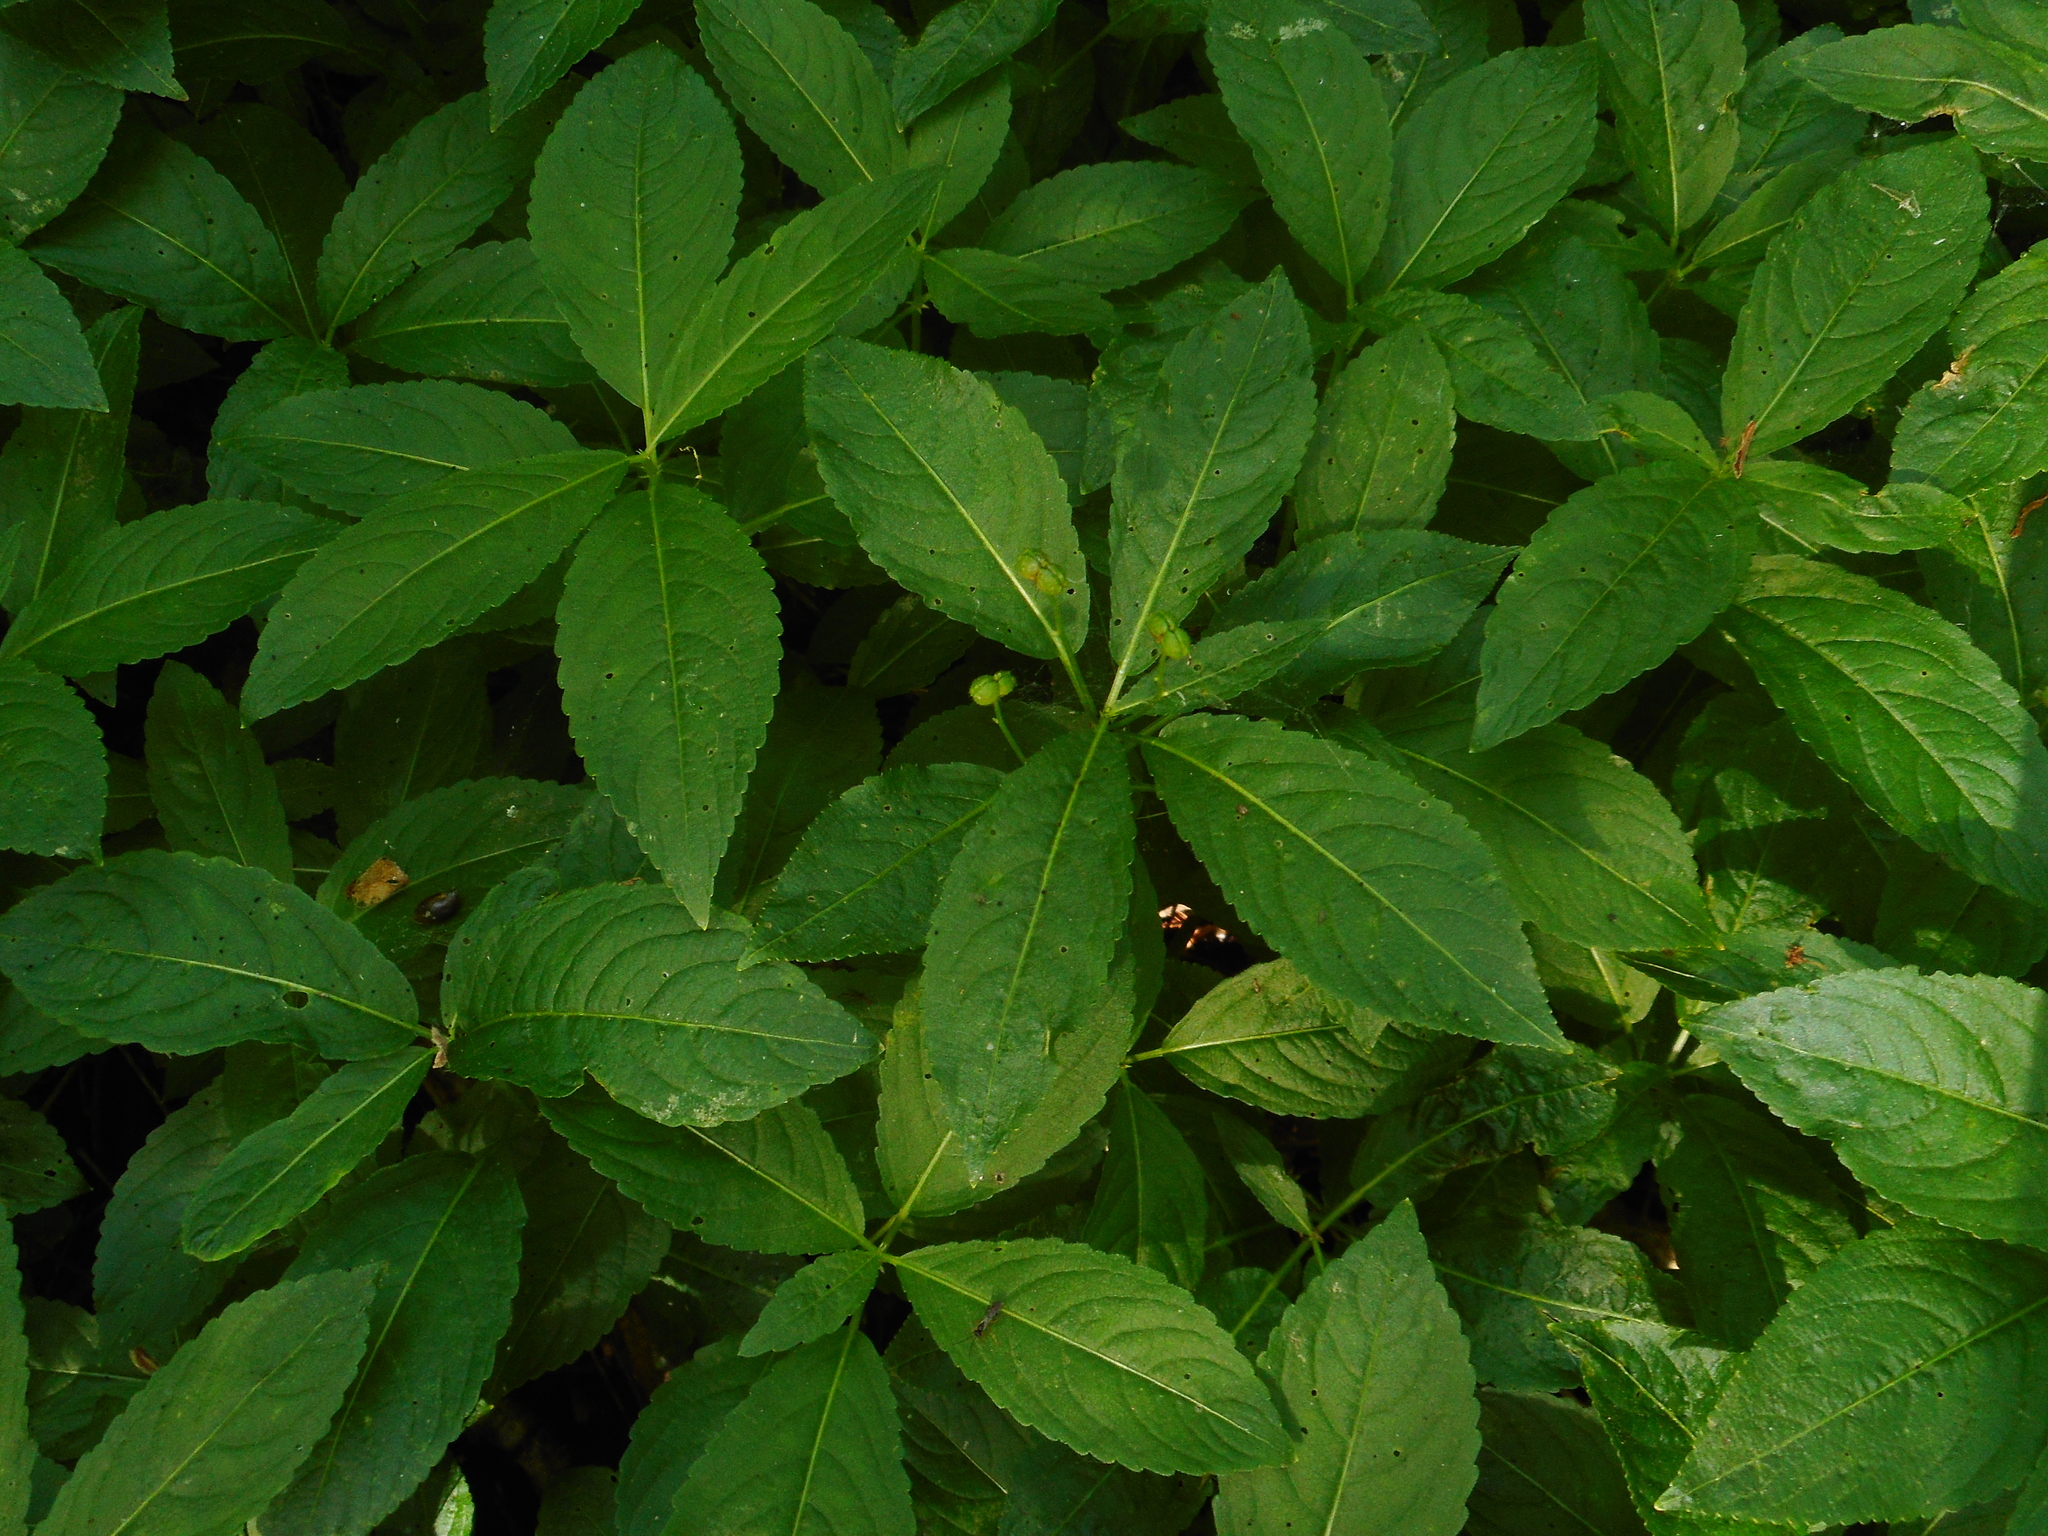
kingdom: Plantae
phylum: Tracheophyta
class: Magnoliopsida
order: Malpighiales
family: Euphorbiaceae
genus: Mercurialis
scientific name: Mercurialis perennis
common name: Dog mercury
